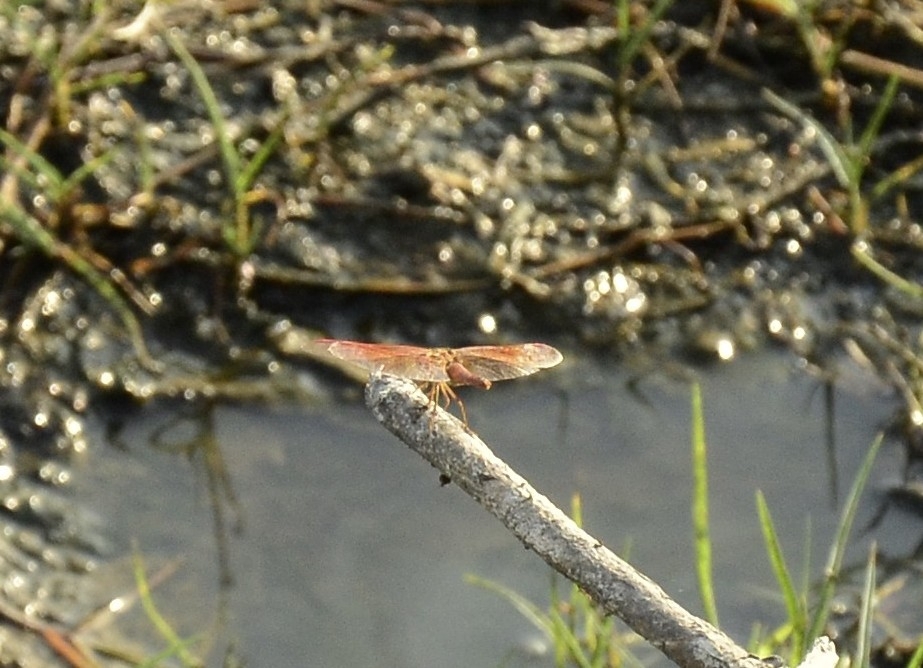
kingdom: Animalia
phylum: Arthropoda
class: Insecta
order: Odonata
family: Libellulidae
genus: Brachythemis
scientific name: Brachythemis contaminata
